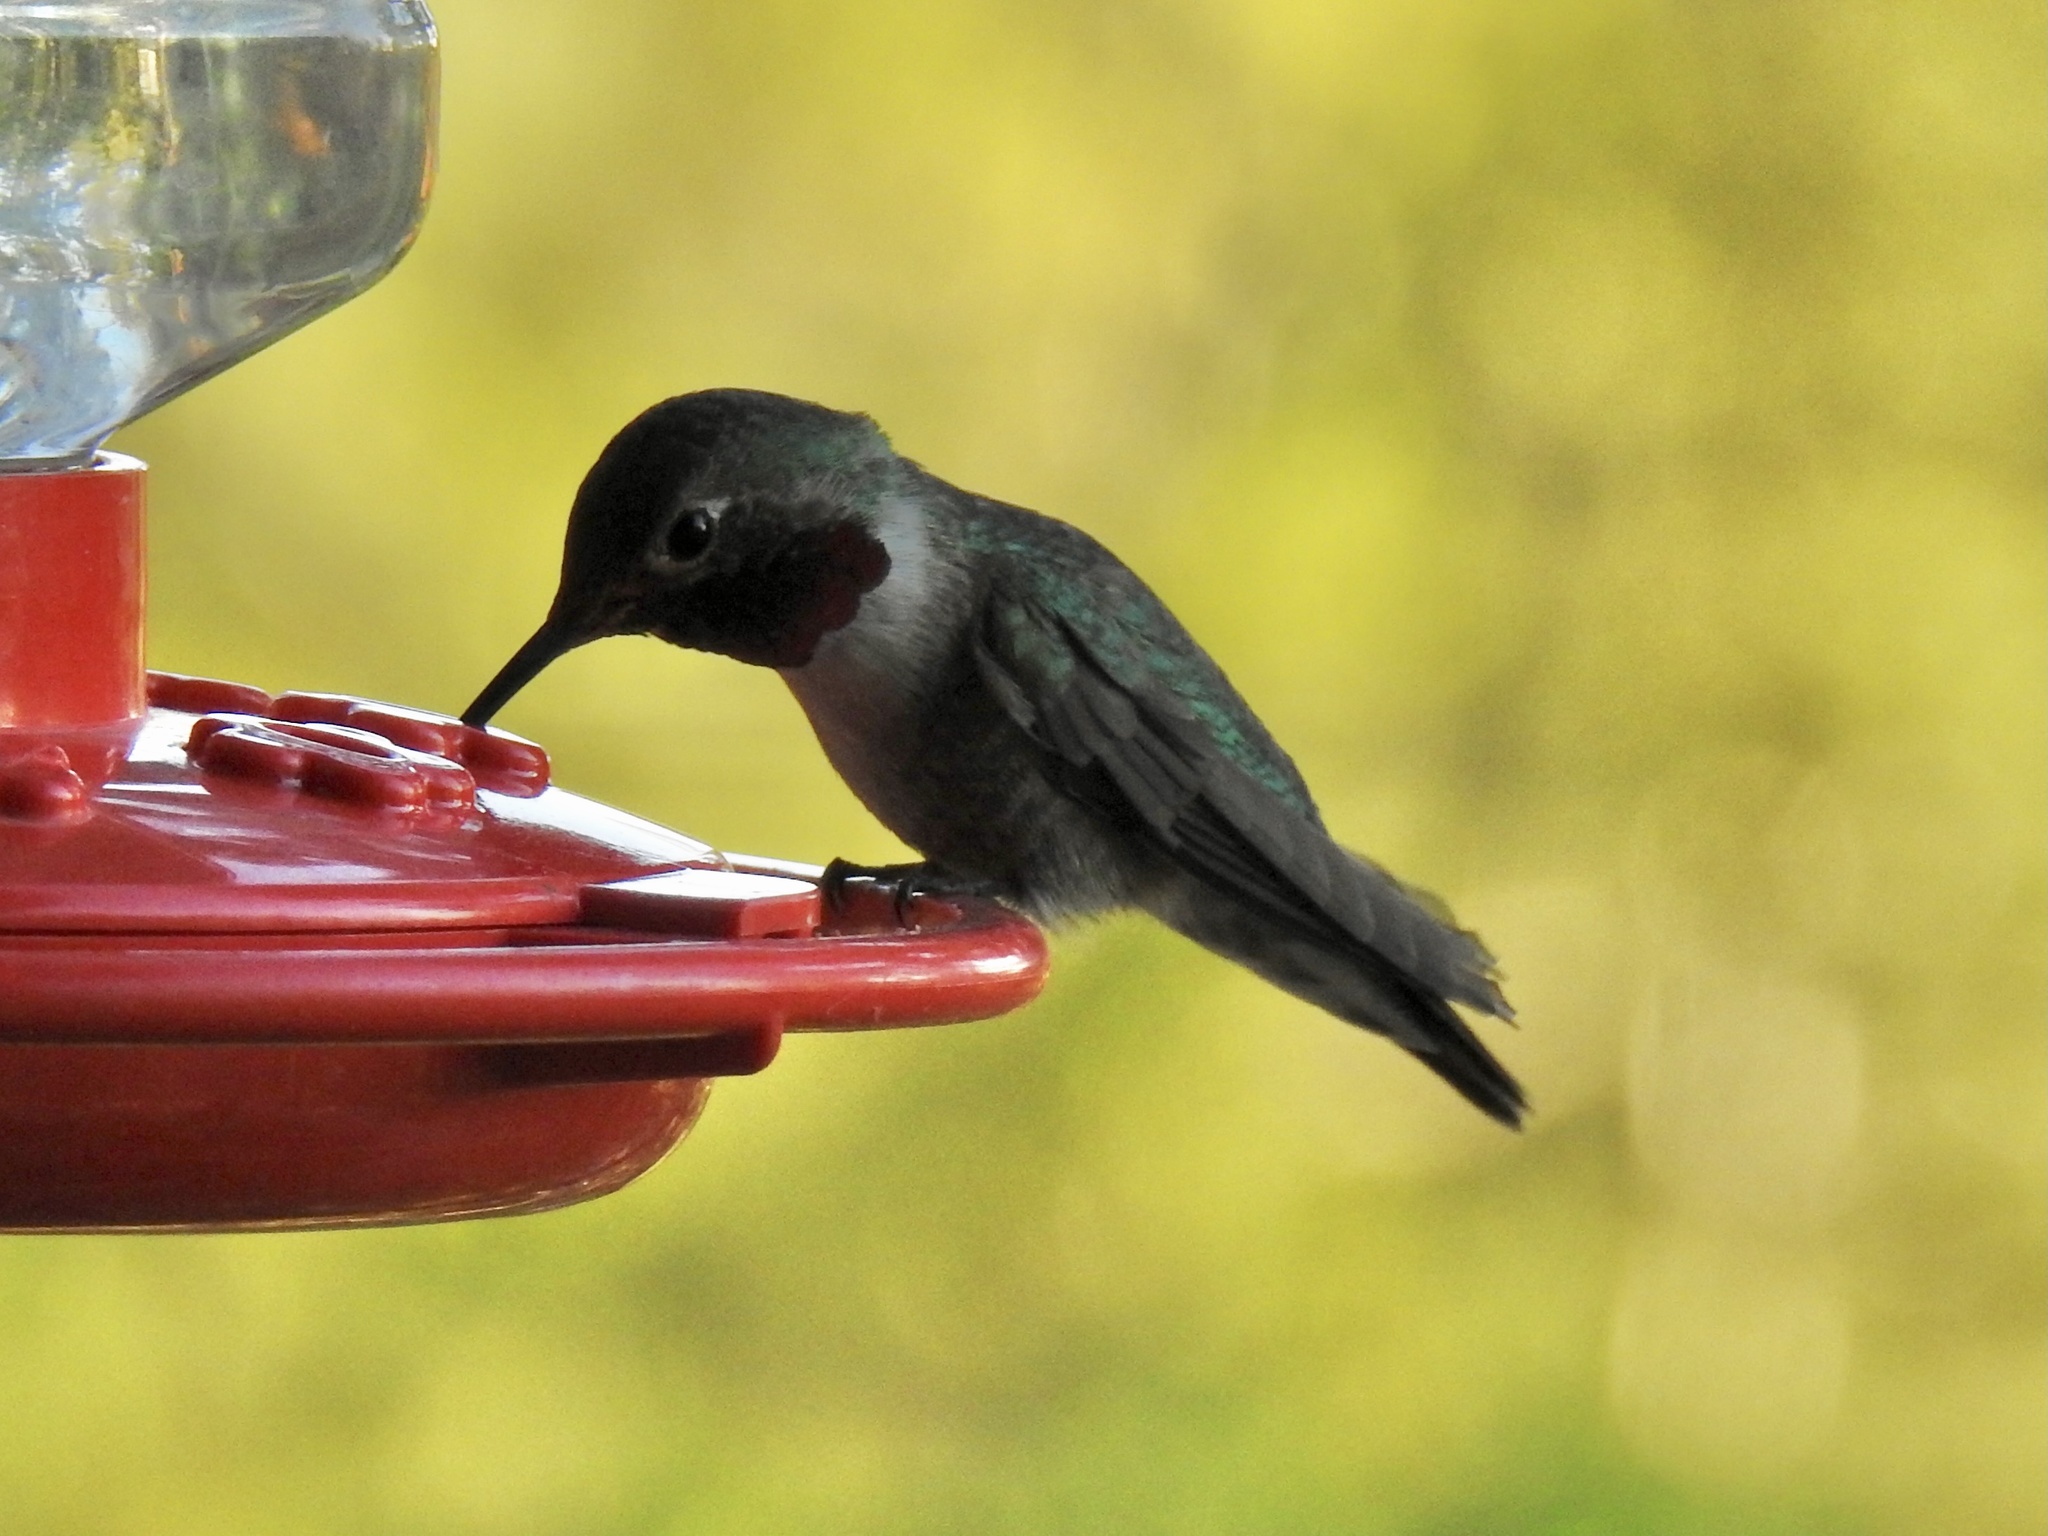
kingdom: Animalia
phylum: Chordata
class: Aves
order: Apodiformes
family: Trochilidae
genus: Selasphorus
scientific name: Selasphorus platycercus
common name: Broad-tailed hummingbird
